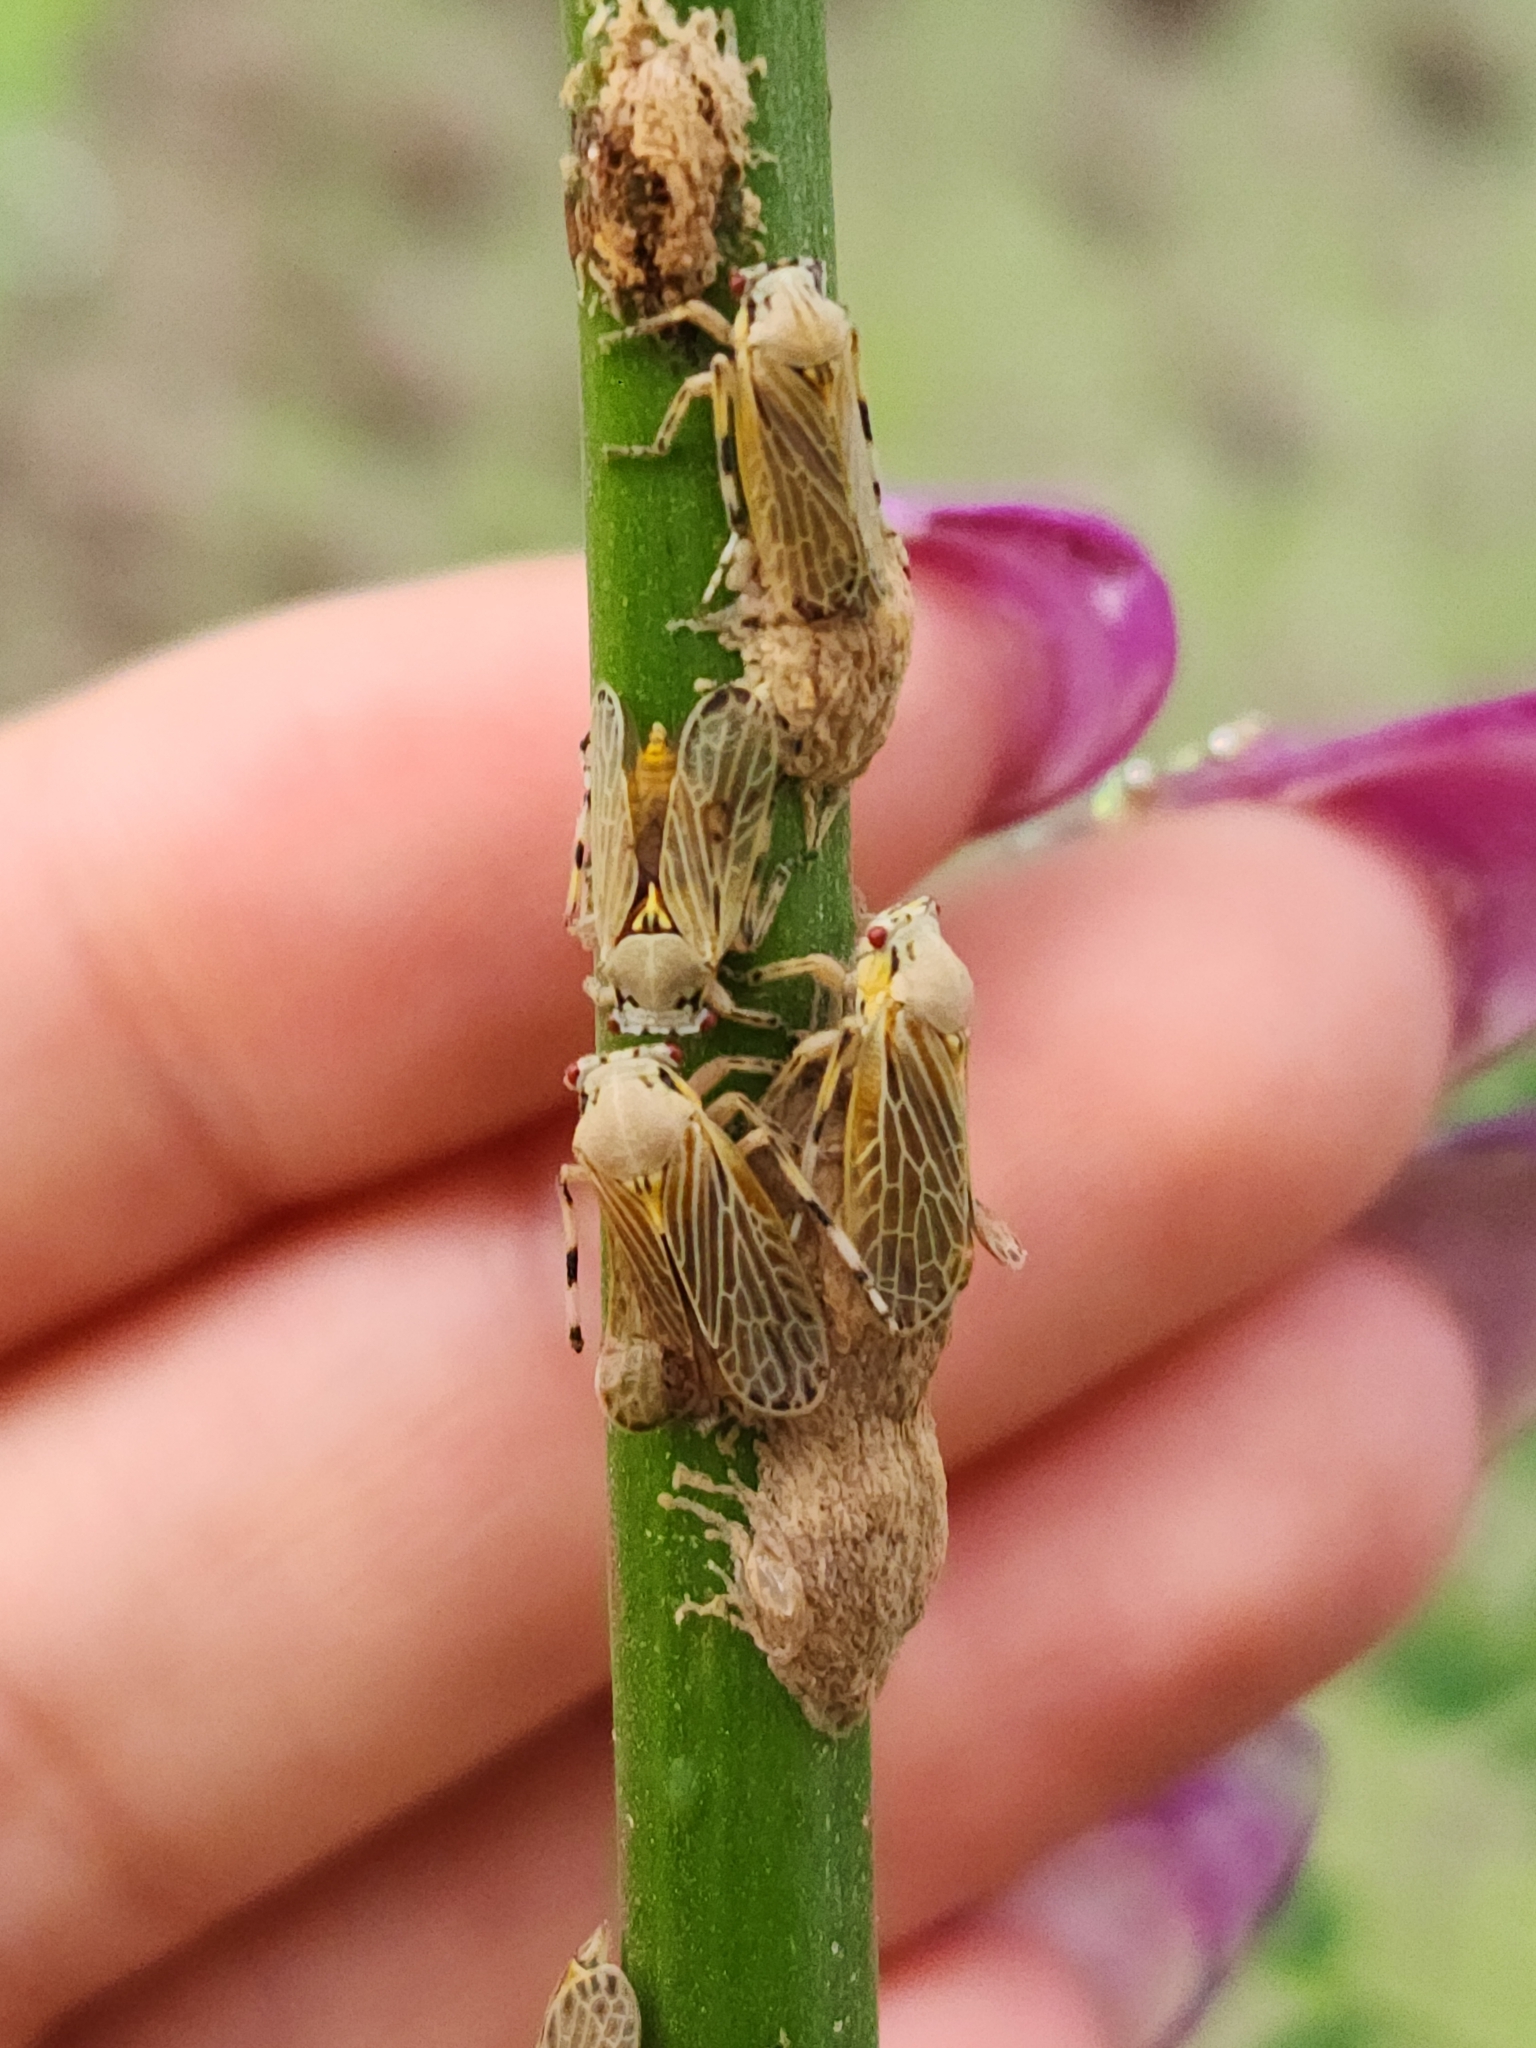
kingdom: Animalia
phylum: Arthropoda
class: Insecta
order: Hemiptera
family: Aetalionidae
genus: Aetalion
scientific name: Aetalion reticulatum
